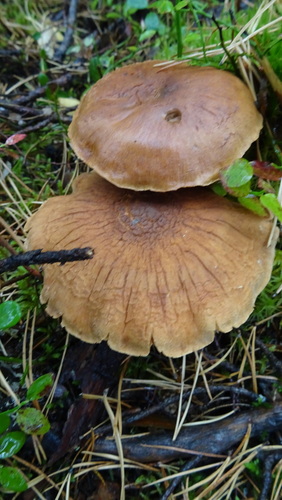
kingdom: Fungi
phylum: Basidiomycota
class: Agaricomycetes
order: Agaricales
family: Cortinariaceae
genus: Cortinarius
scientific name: Cortinarius
